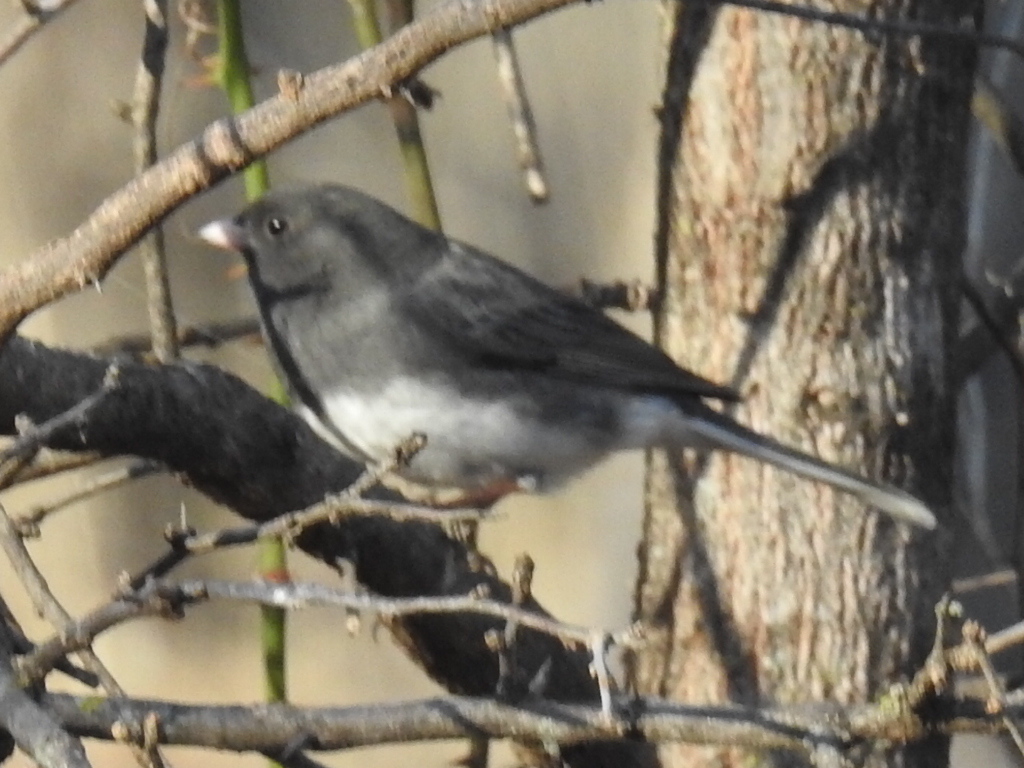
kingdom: Animalia
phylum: Chordata
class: Aves
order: Passeriformes
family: Passerellidae
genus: Junco
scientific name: Junco hyemalis
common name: Dark-eyed junco
